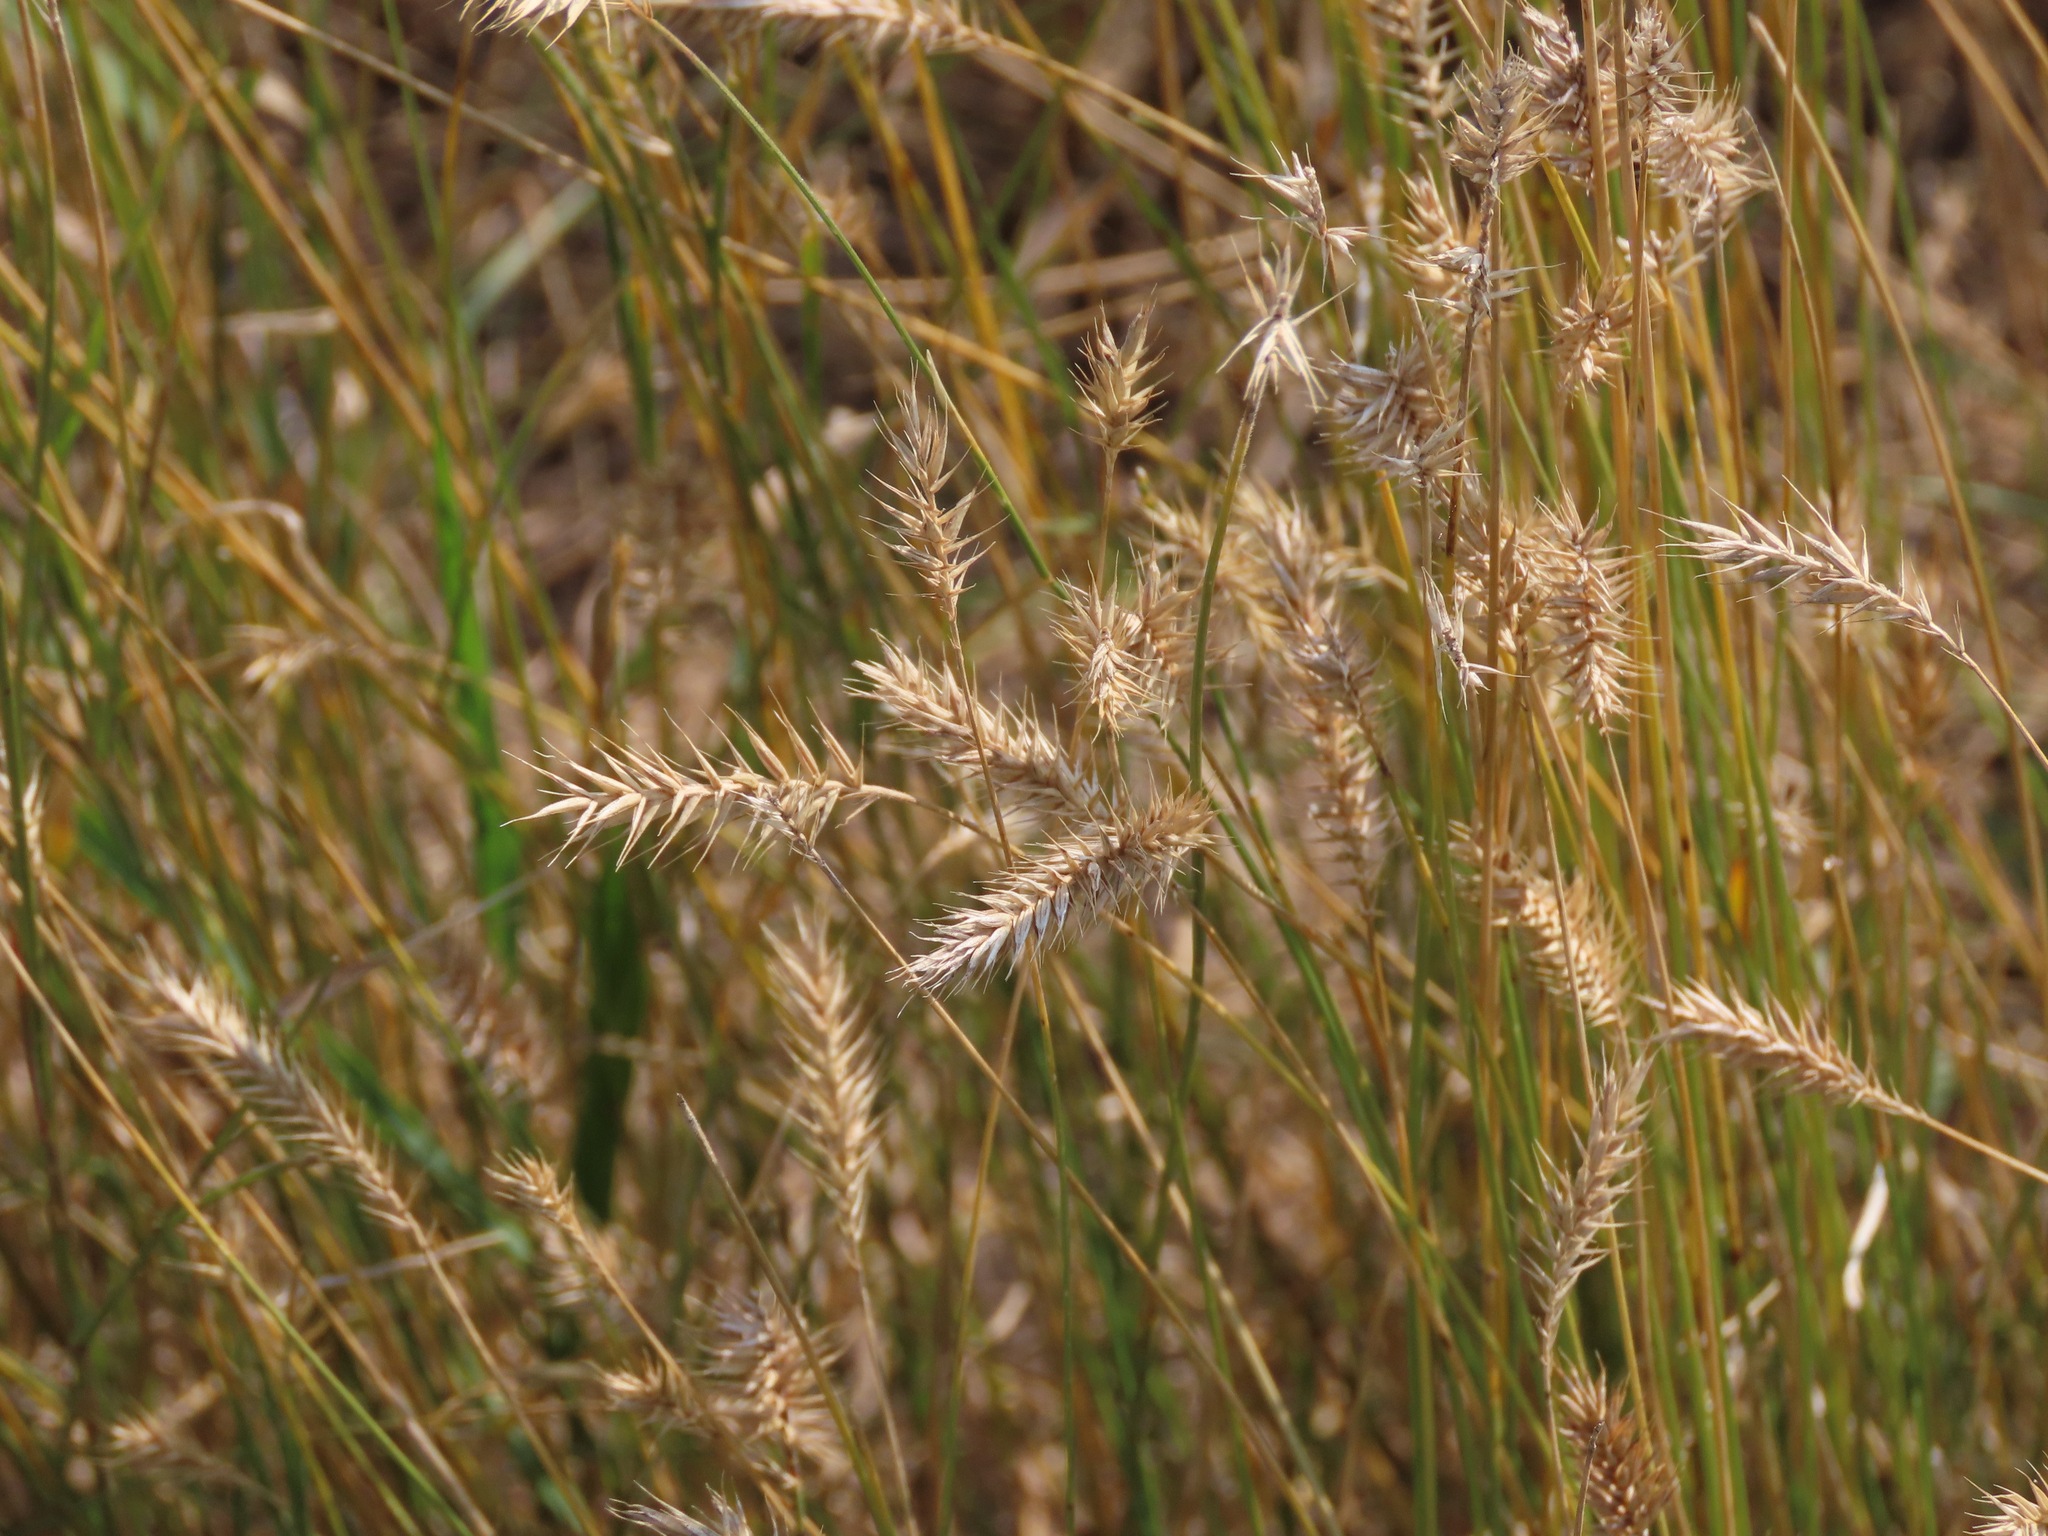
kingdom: Plantae
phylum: Tracheophyta
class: Liliopsida
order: Poales
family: Poaceae
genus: Agropyron
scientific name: Agropyron cristatum
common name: Crested wheatgrass
